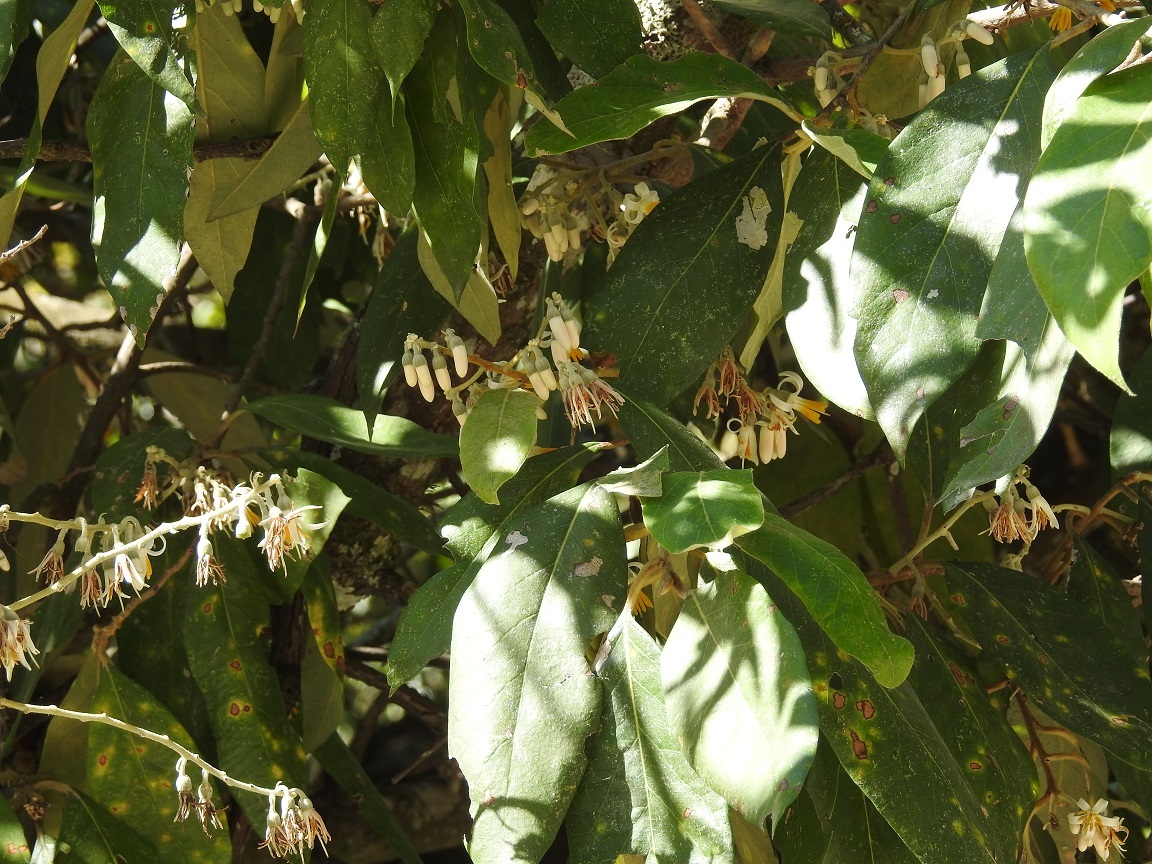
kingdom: Plantae
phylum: Tracheophyta
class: Magnoliopsida
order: Ericales
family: Styracaceae
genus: Styrax
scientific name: Styrax argenteus
